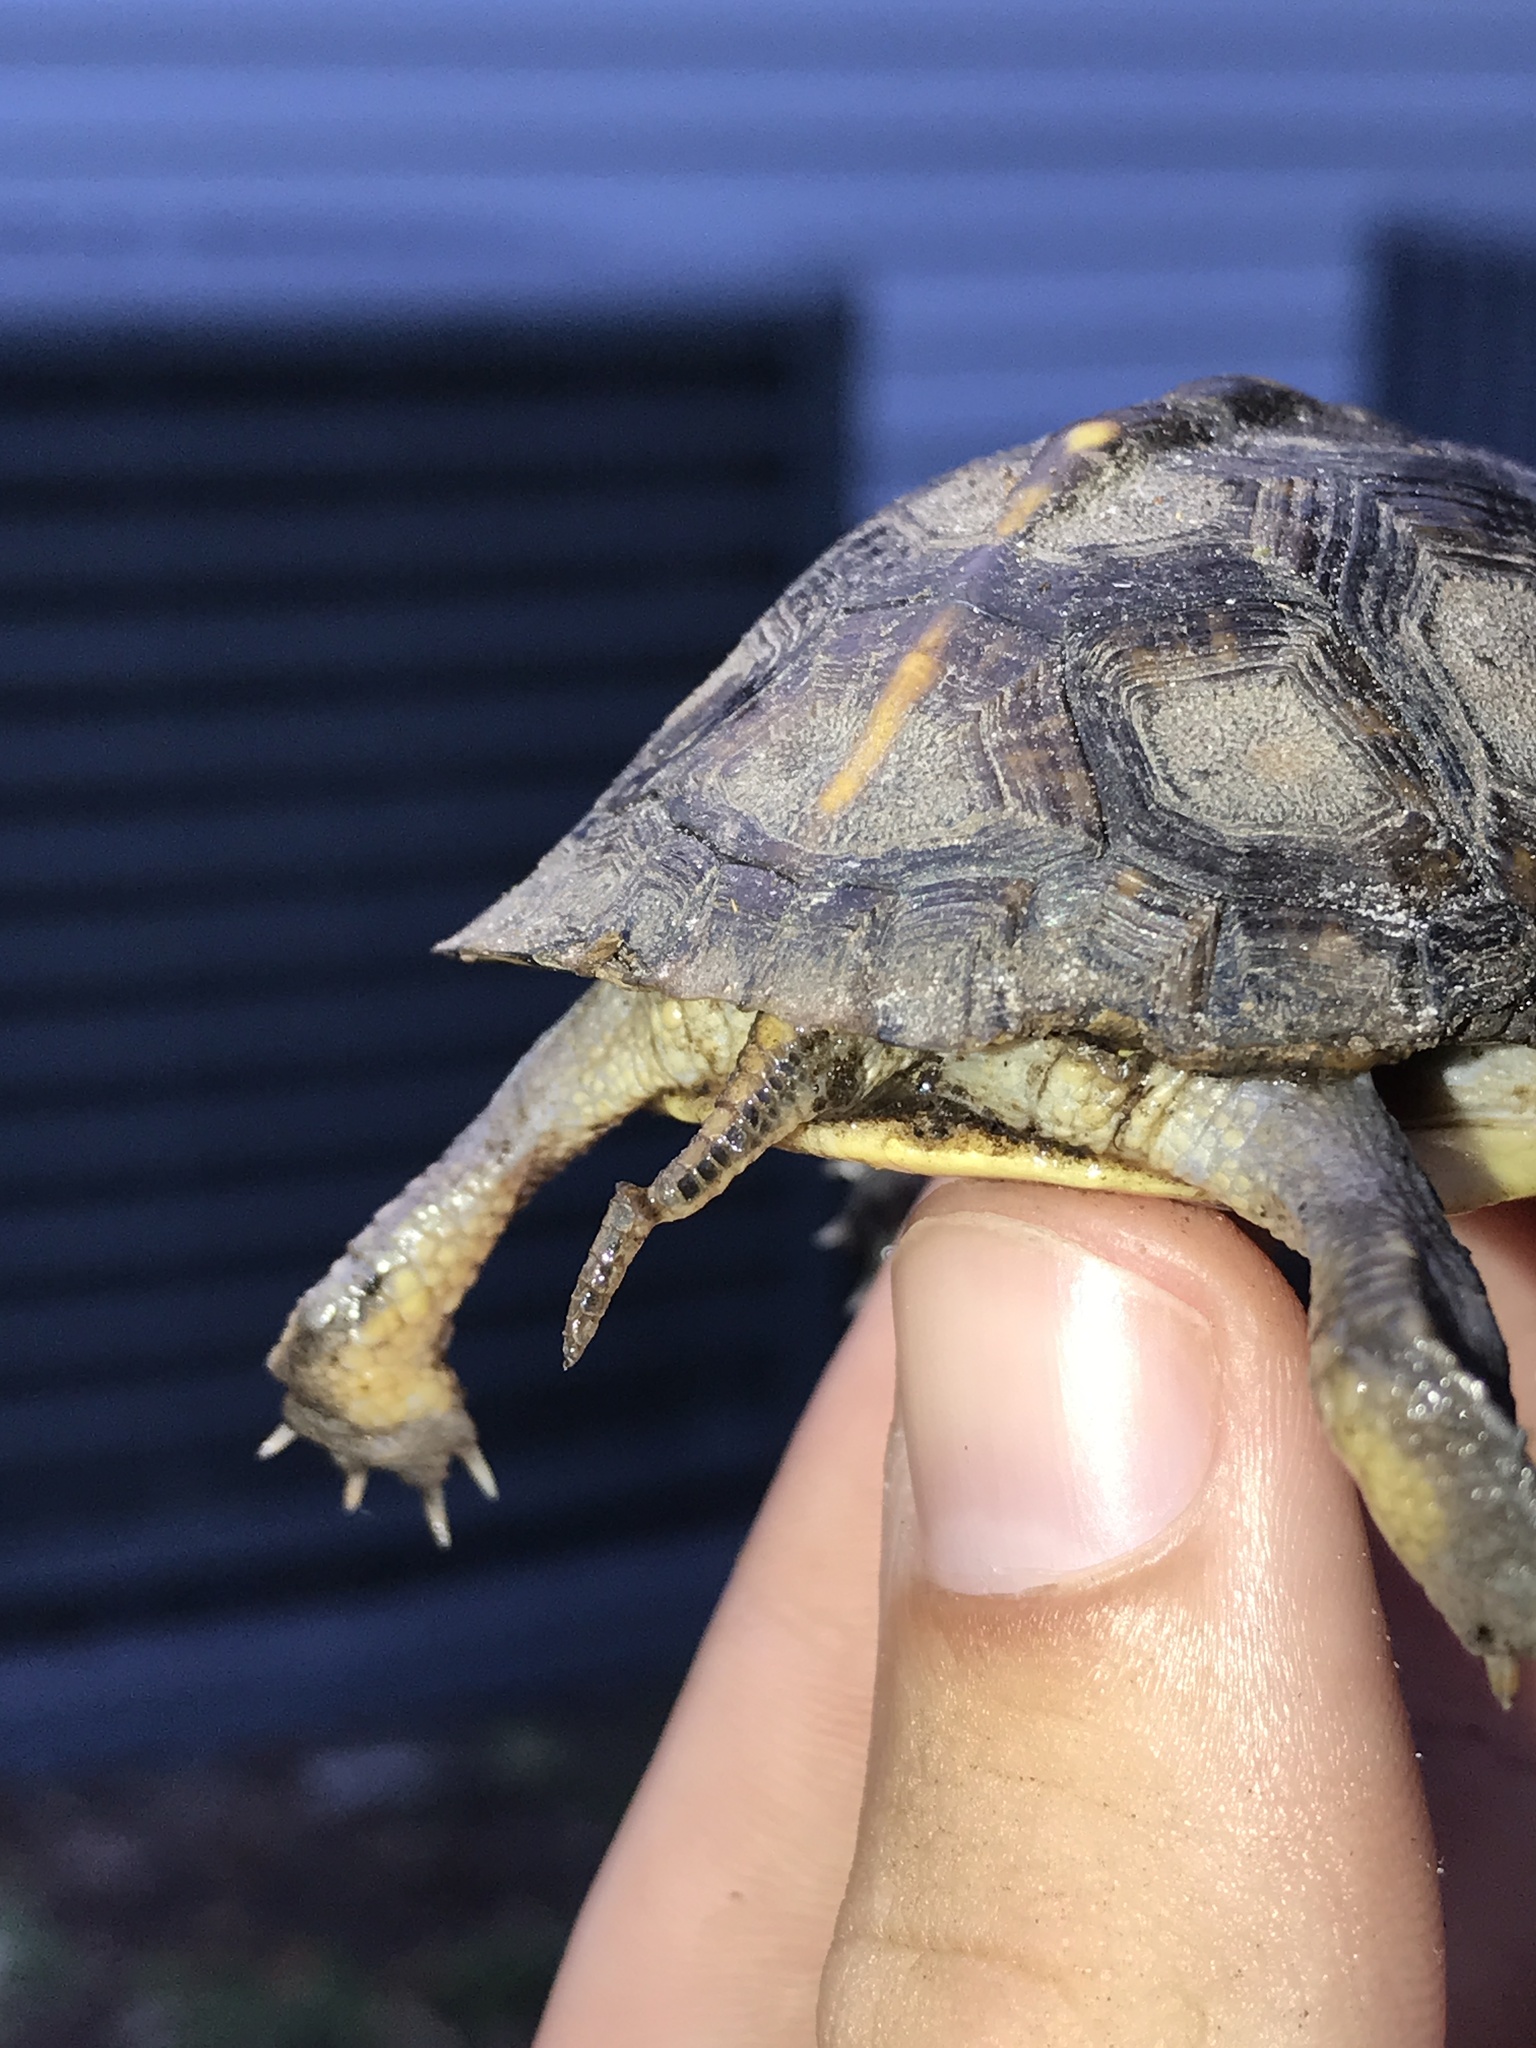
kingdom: Animalia
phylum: Chordata
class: Testudines
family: Emydidae
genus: Terrapene
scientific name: Terrapene carolina
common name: Common box turtle
